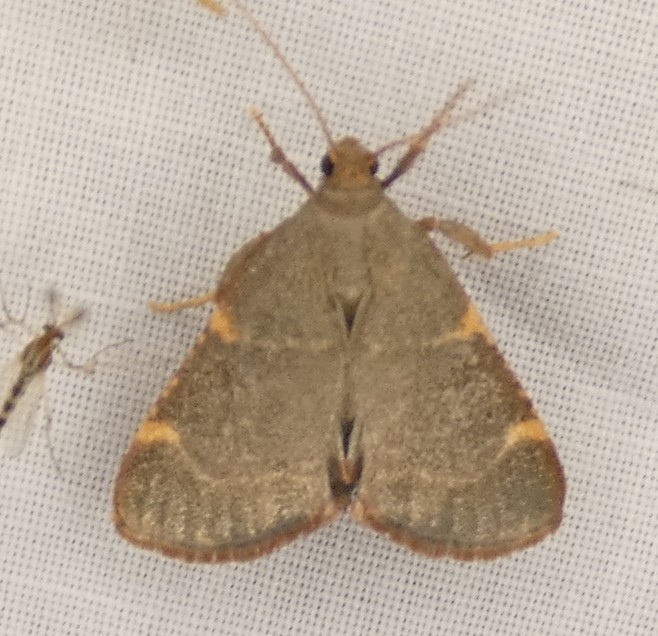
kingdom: Animalia
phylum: Arthropoda
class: Insecta
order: Lepidoptera
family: Pyralidae
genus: Hypsopygia
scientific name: Hypsopygia binodulalis
